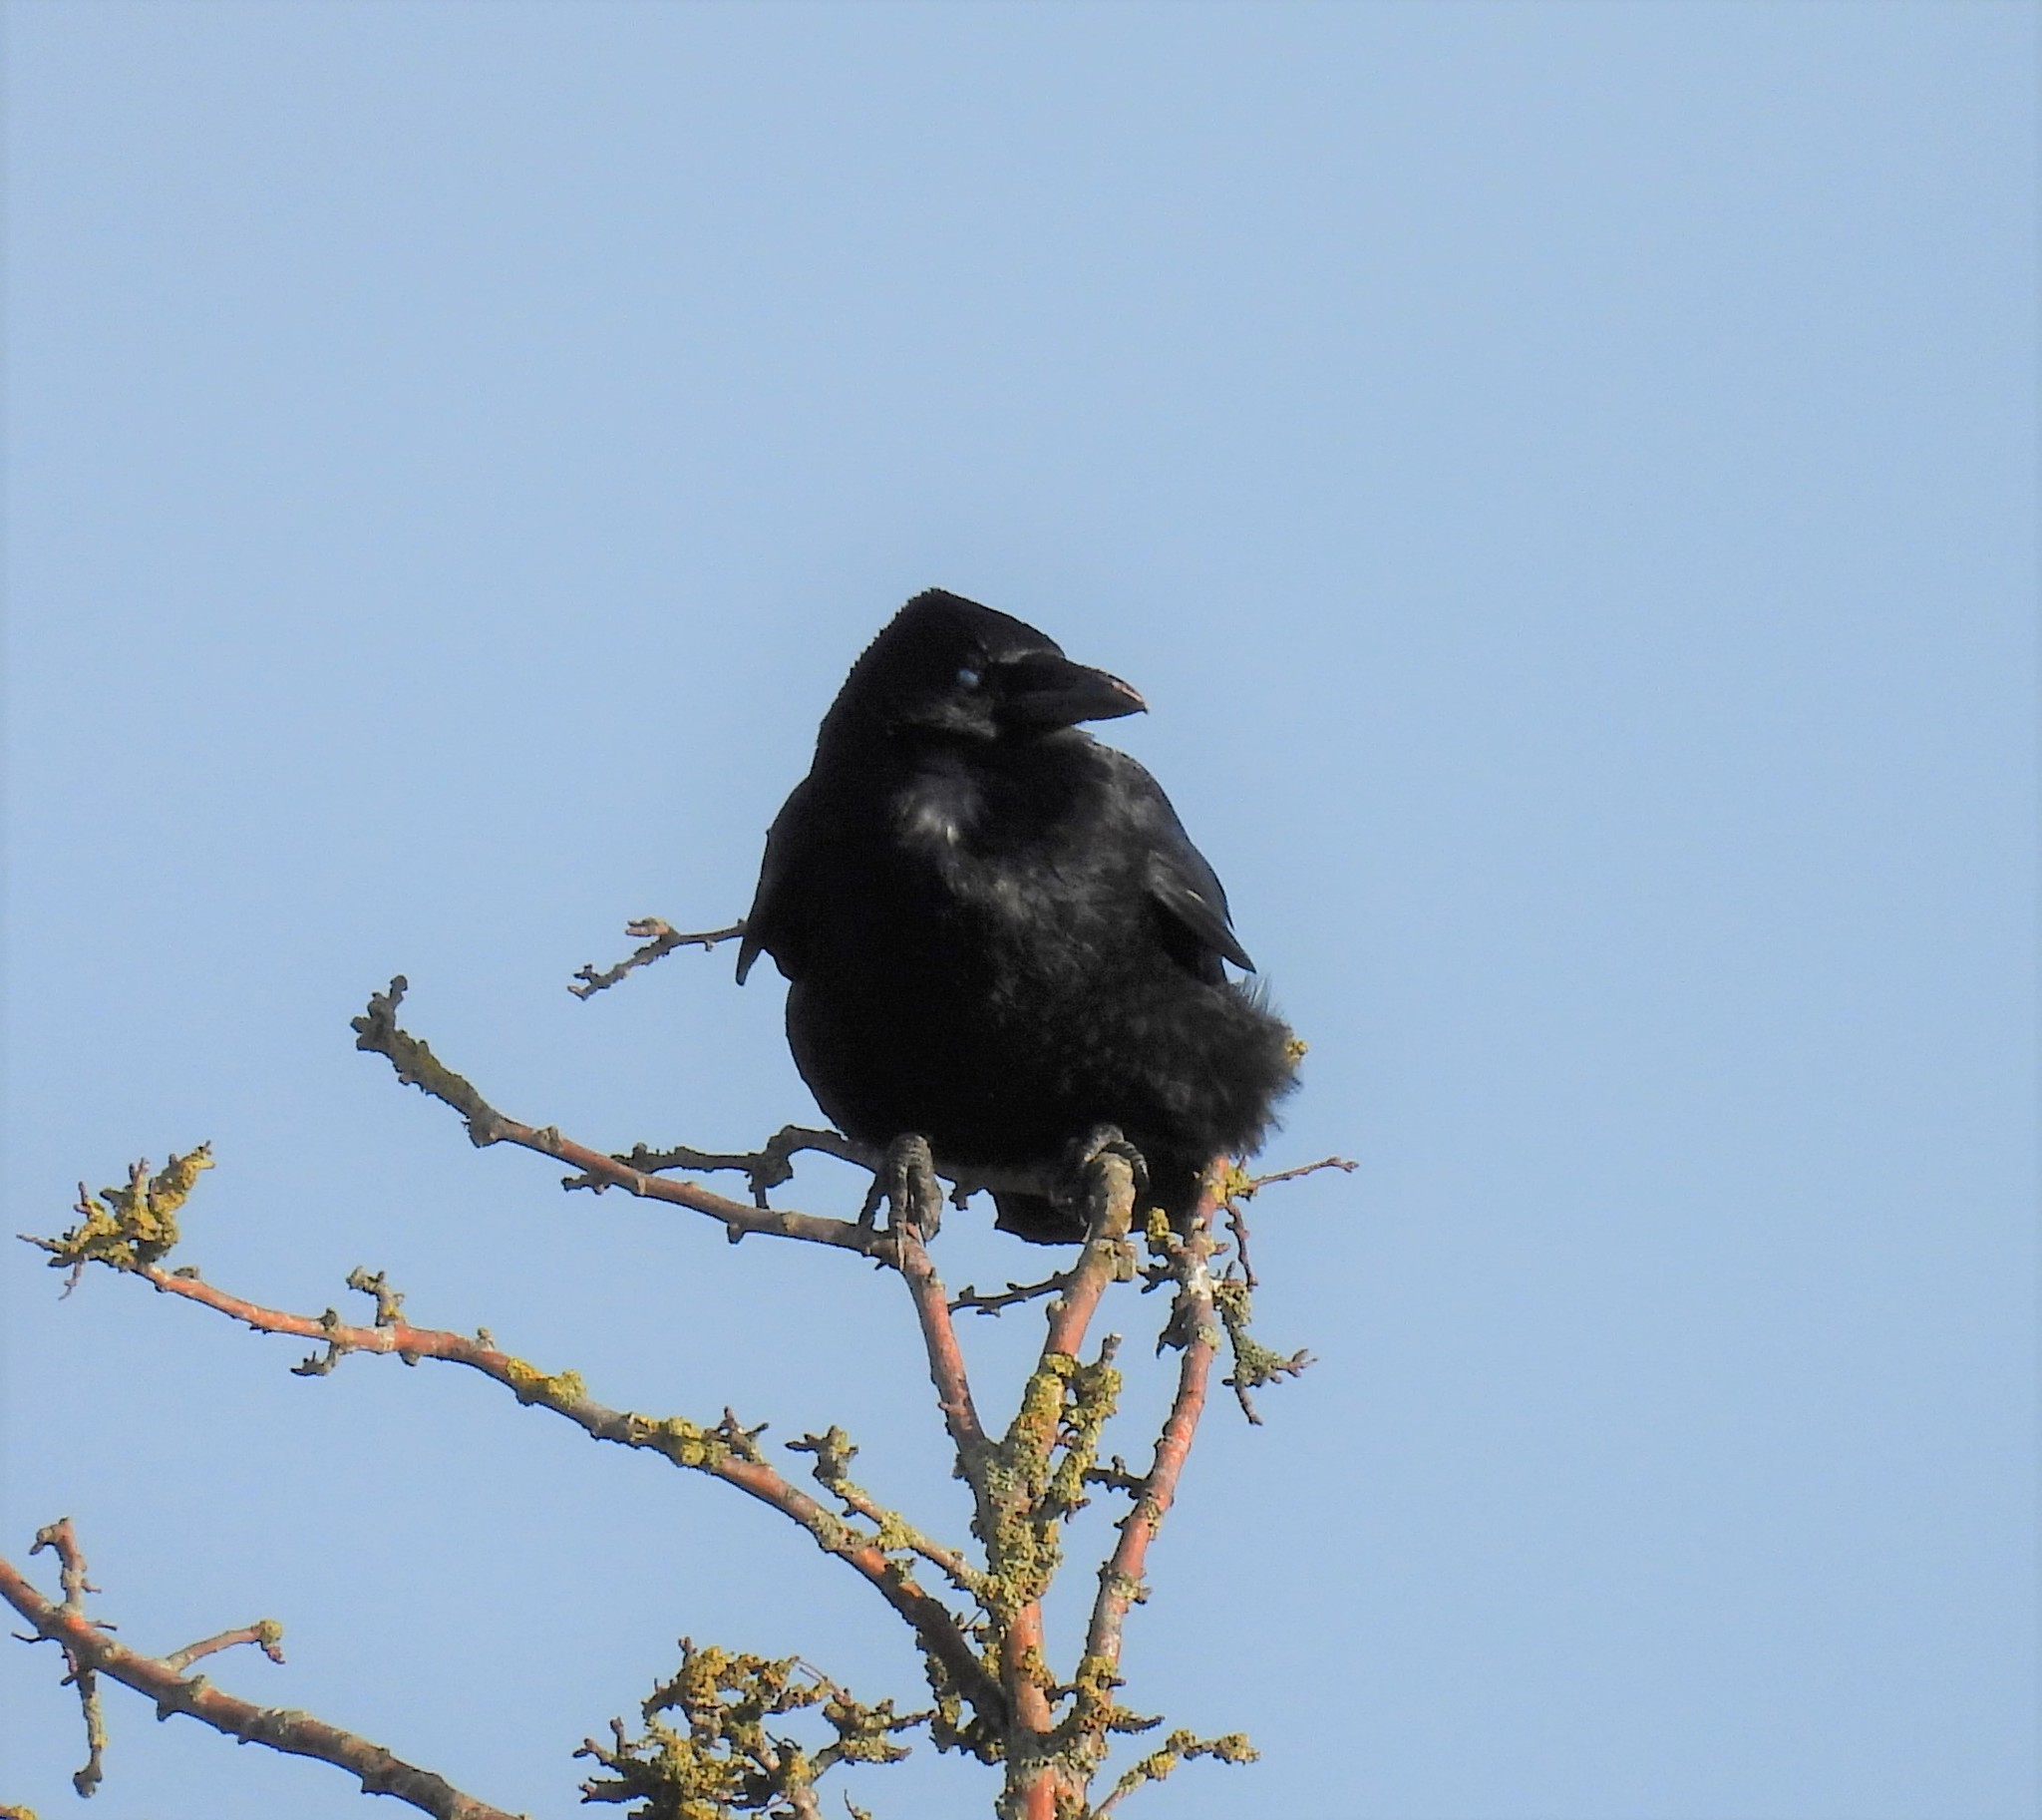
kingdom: Animalia
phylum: Chordata
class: Aves
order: Passeriformes
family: Corvidae
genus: Corvus
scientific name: Corvus corone
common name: Carrion crow
